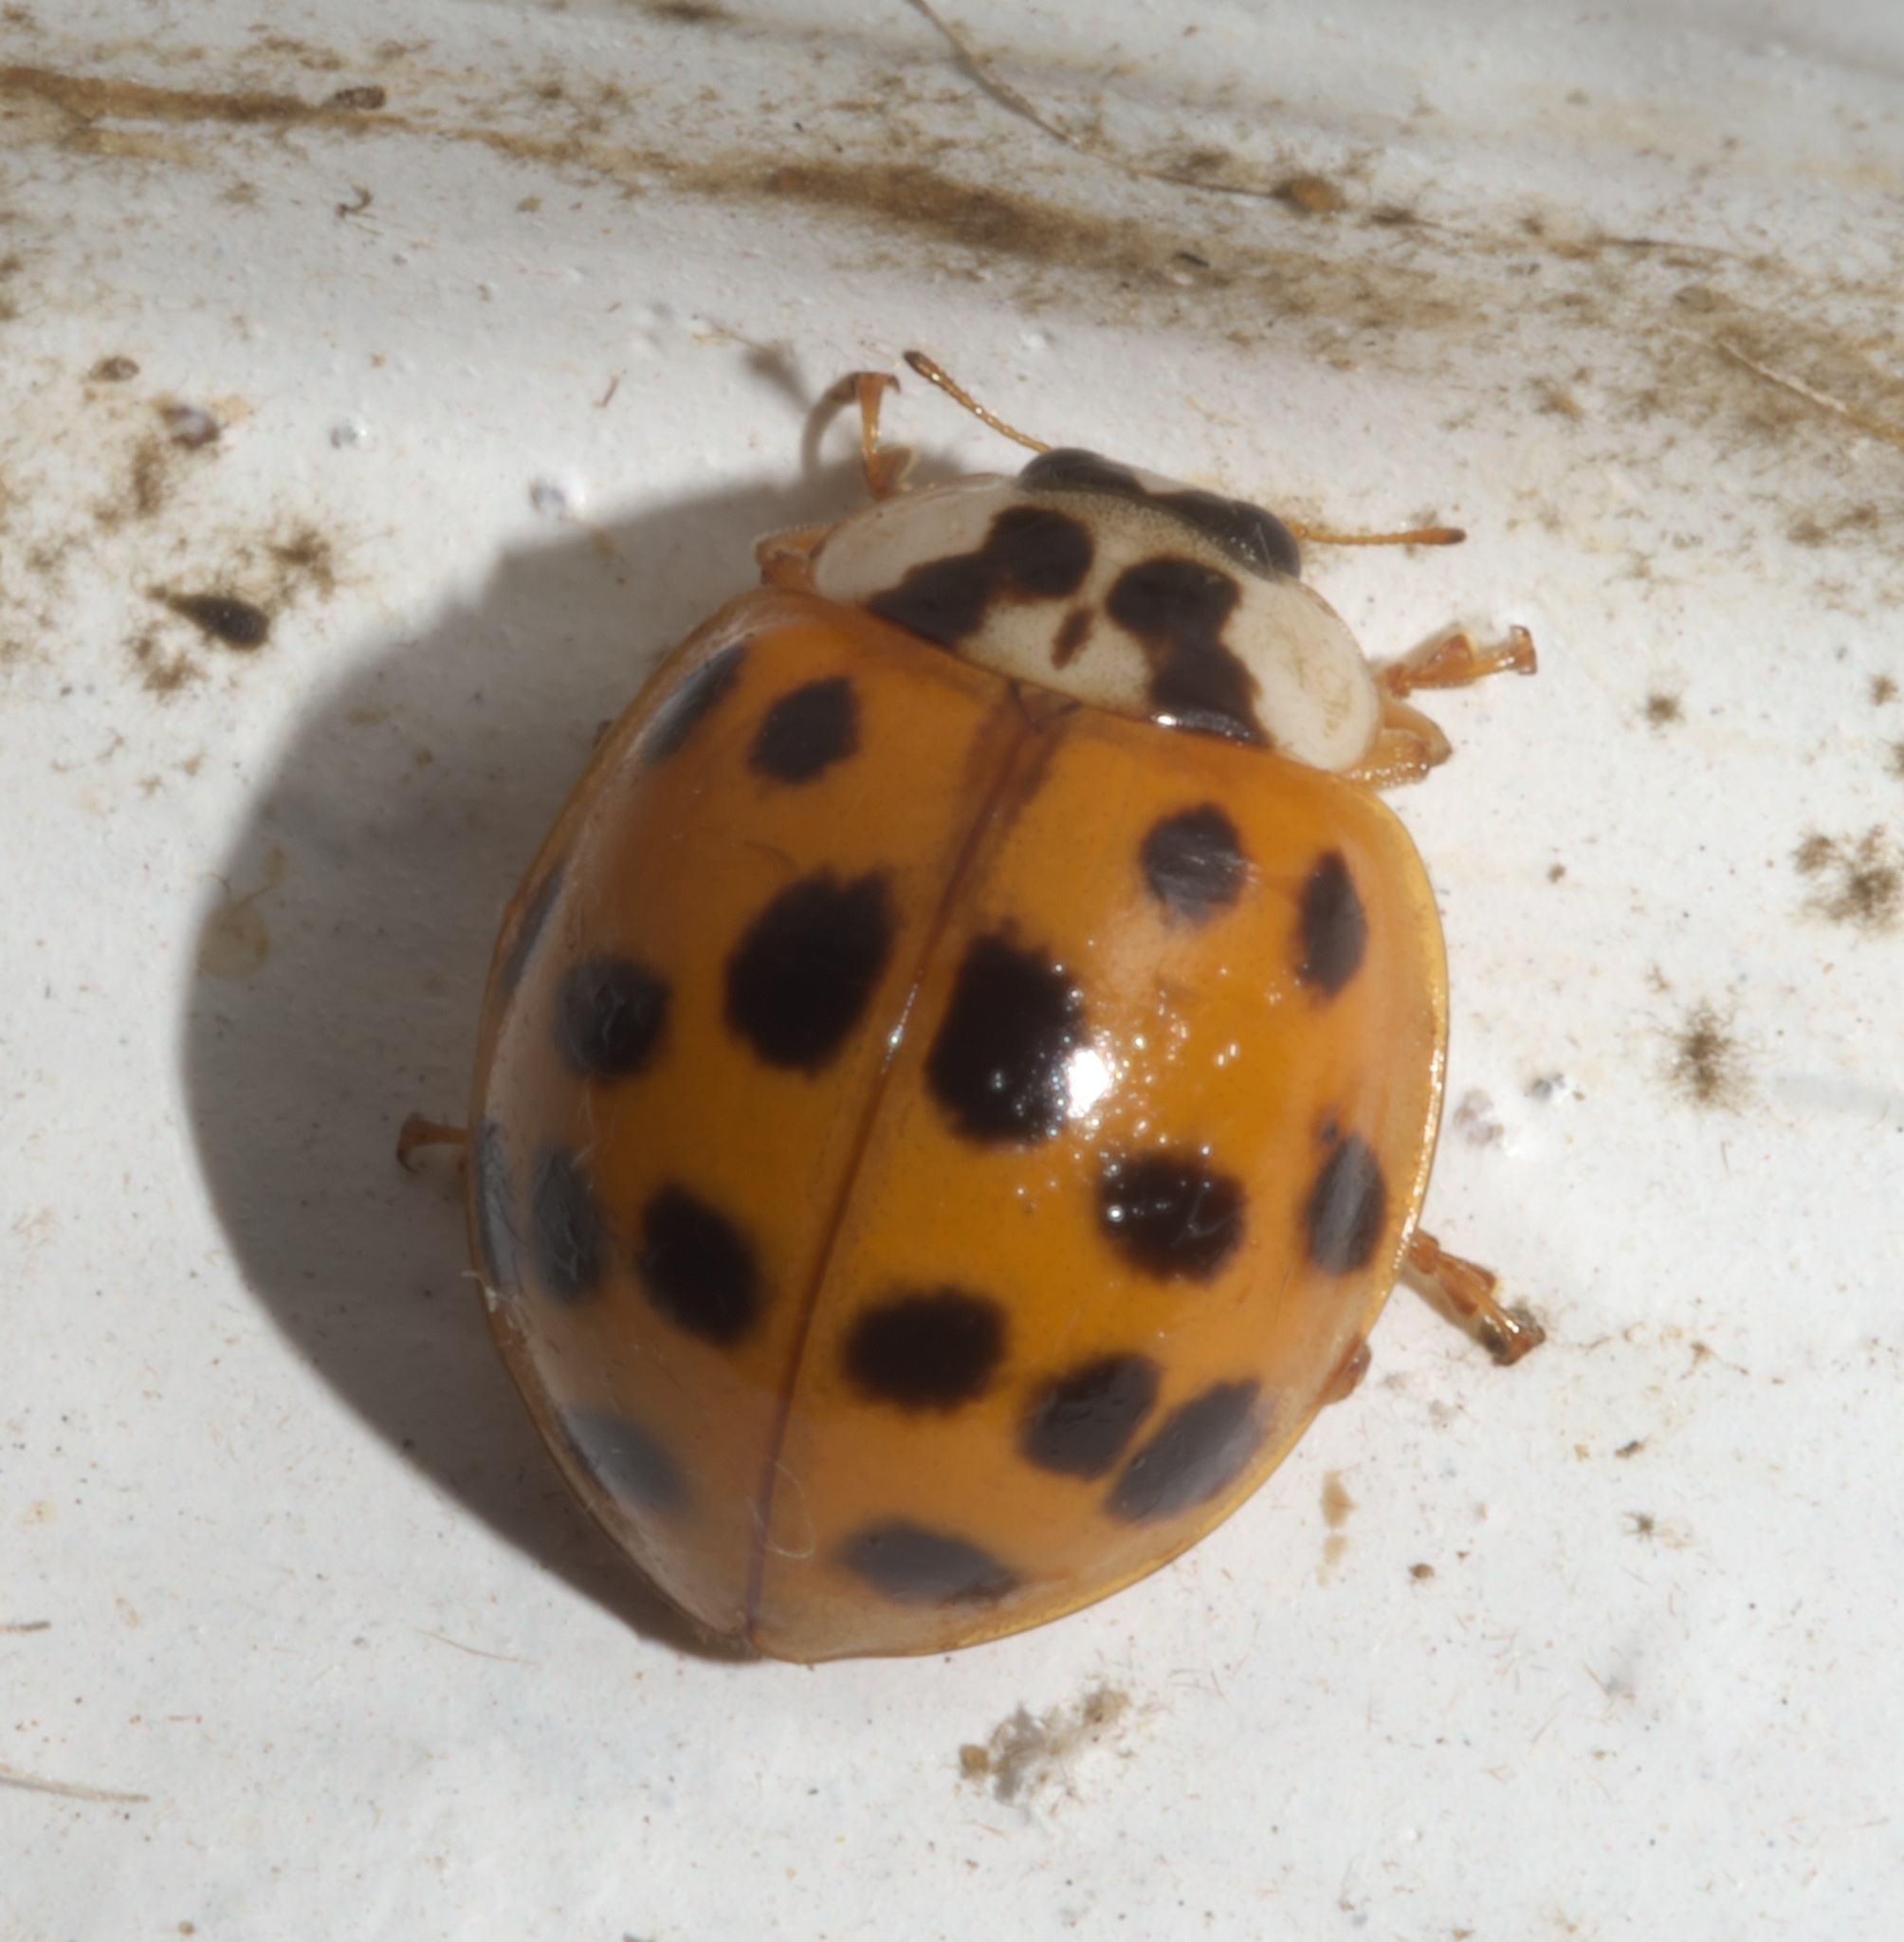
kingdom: Animalia
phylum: Arthropoda
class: Insecta
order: Coleoptera
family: Coccinellidae
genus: Harmonia
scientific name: Harmonia axyridis
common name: Harlequin ladybird
